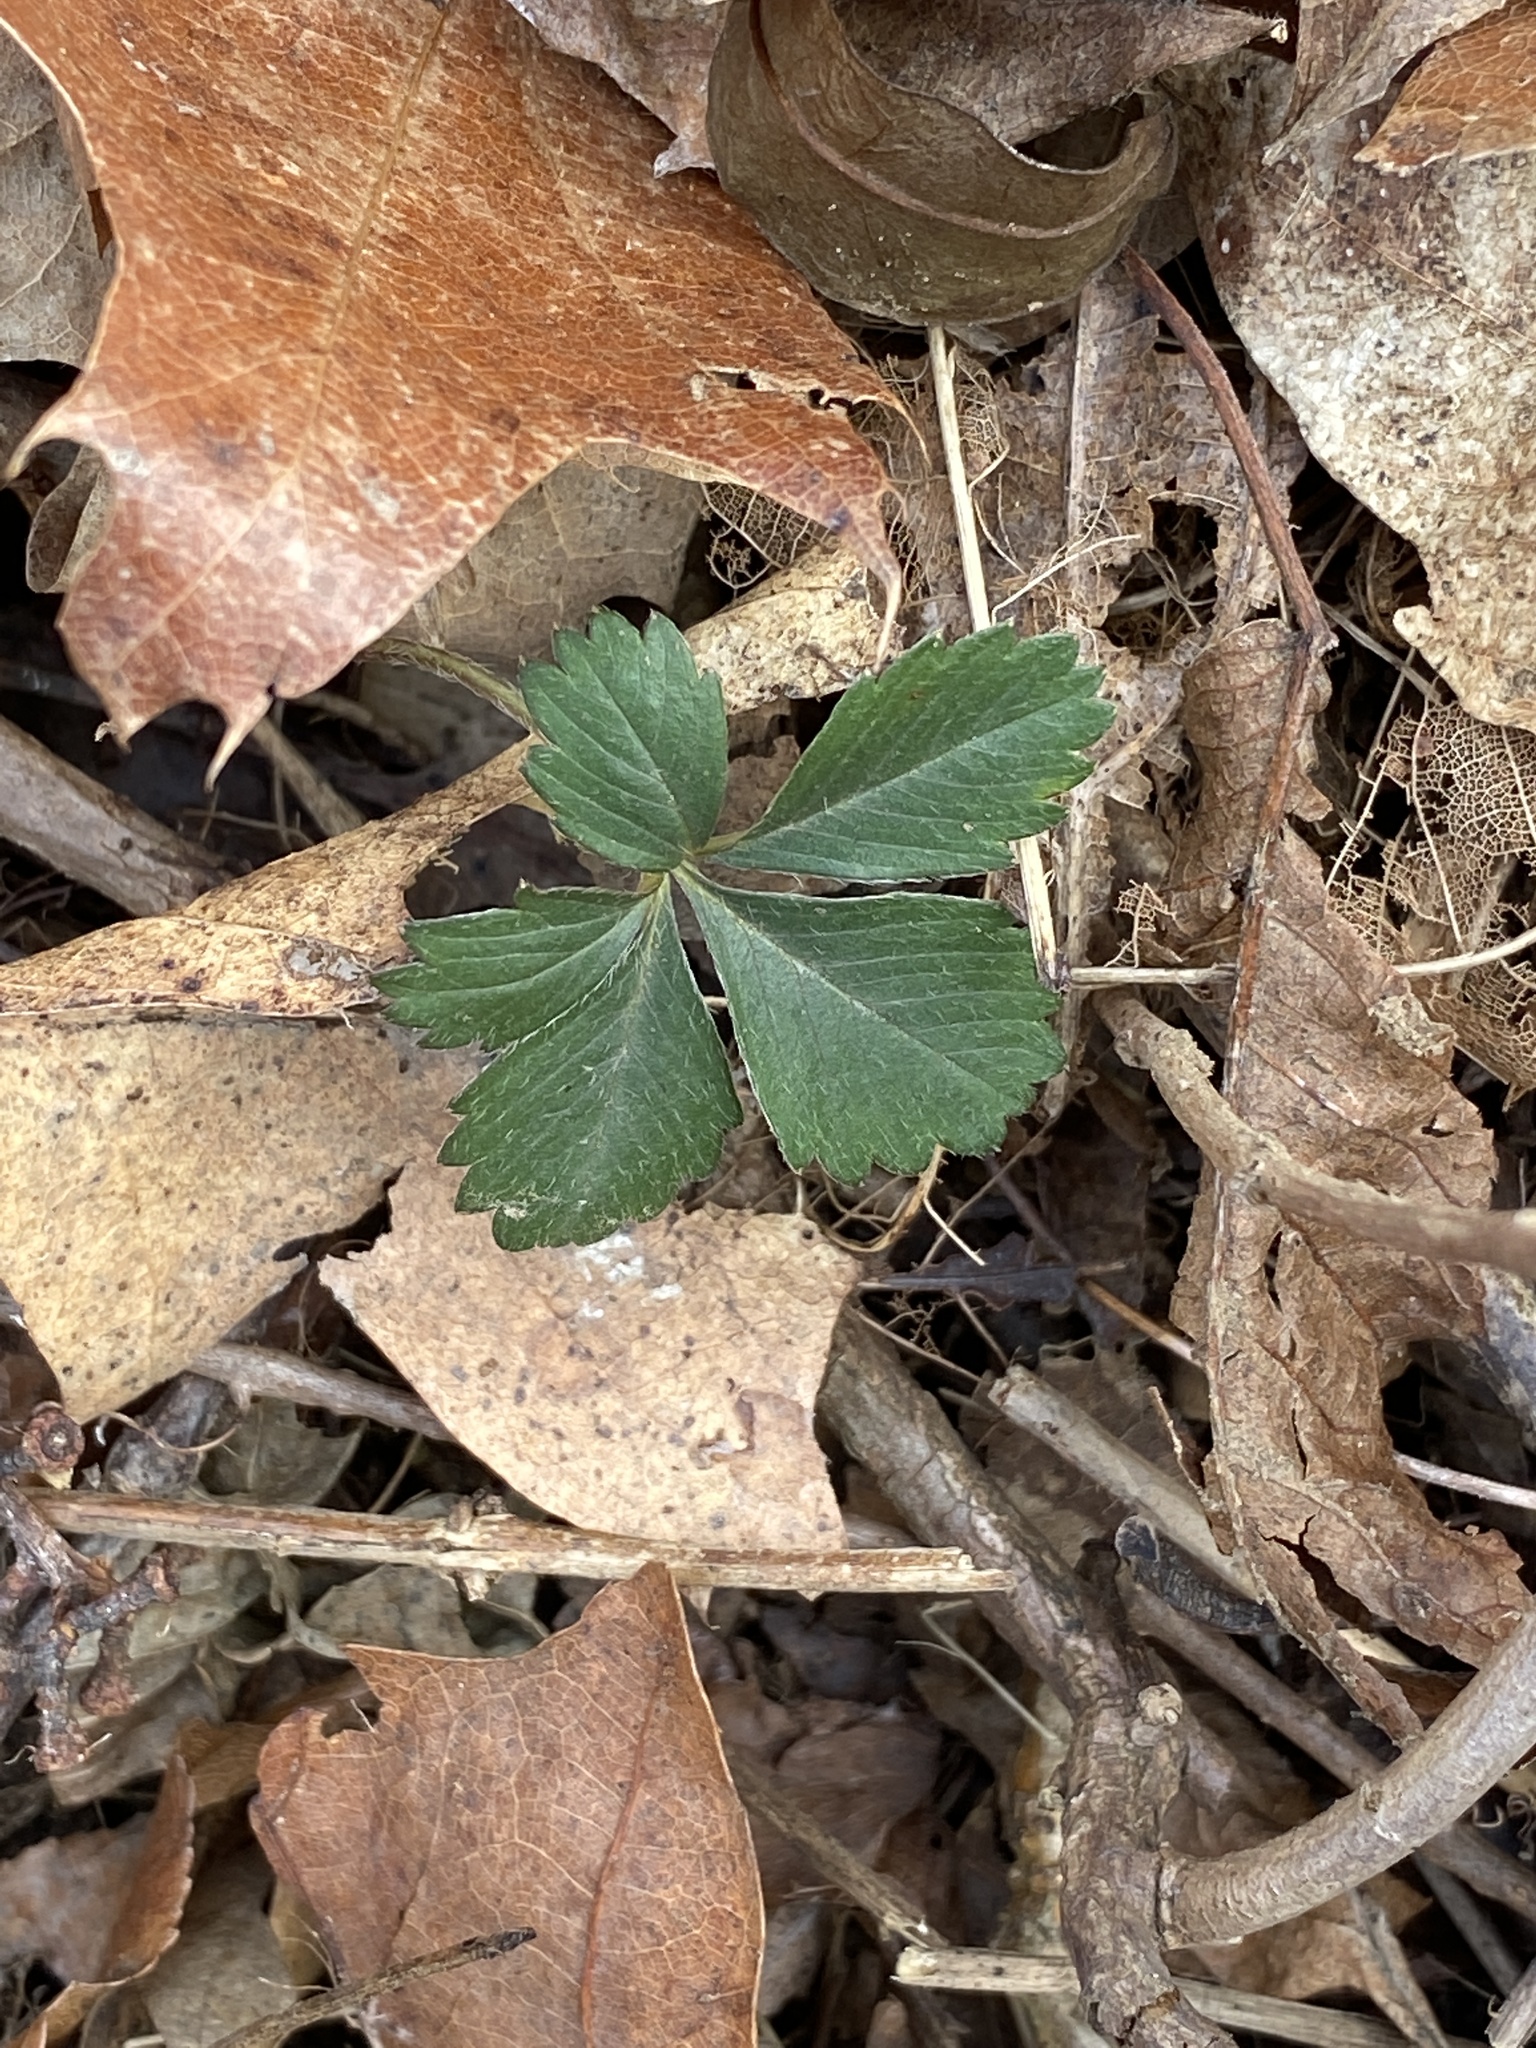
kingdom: Plantae
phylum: Tracheophyta
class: Magnoliopsida
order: Rosales
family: Rosaceae
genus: Potentilla
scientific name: Potentilla canadensis
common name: Canada cinquefoil
